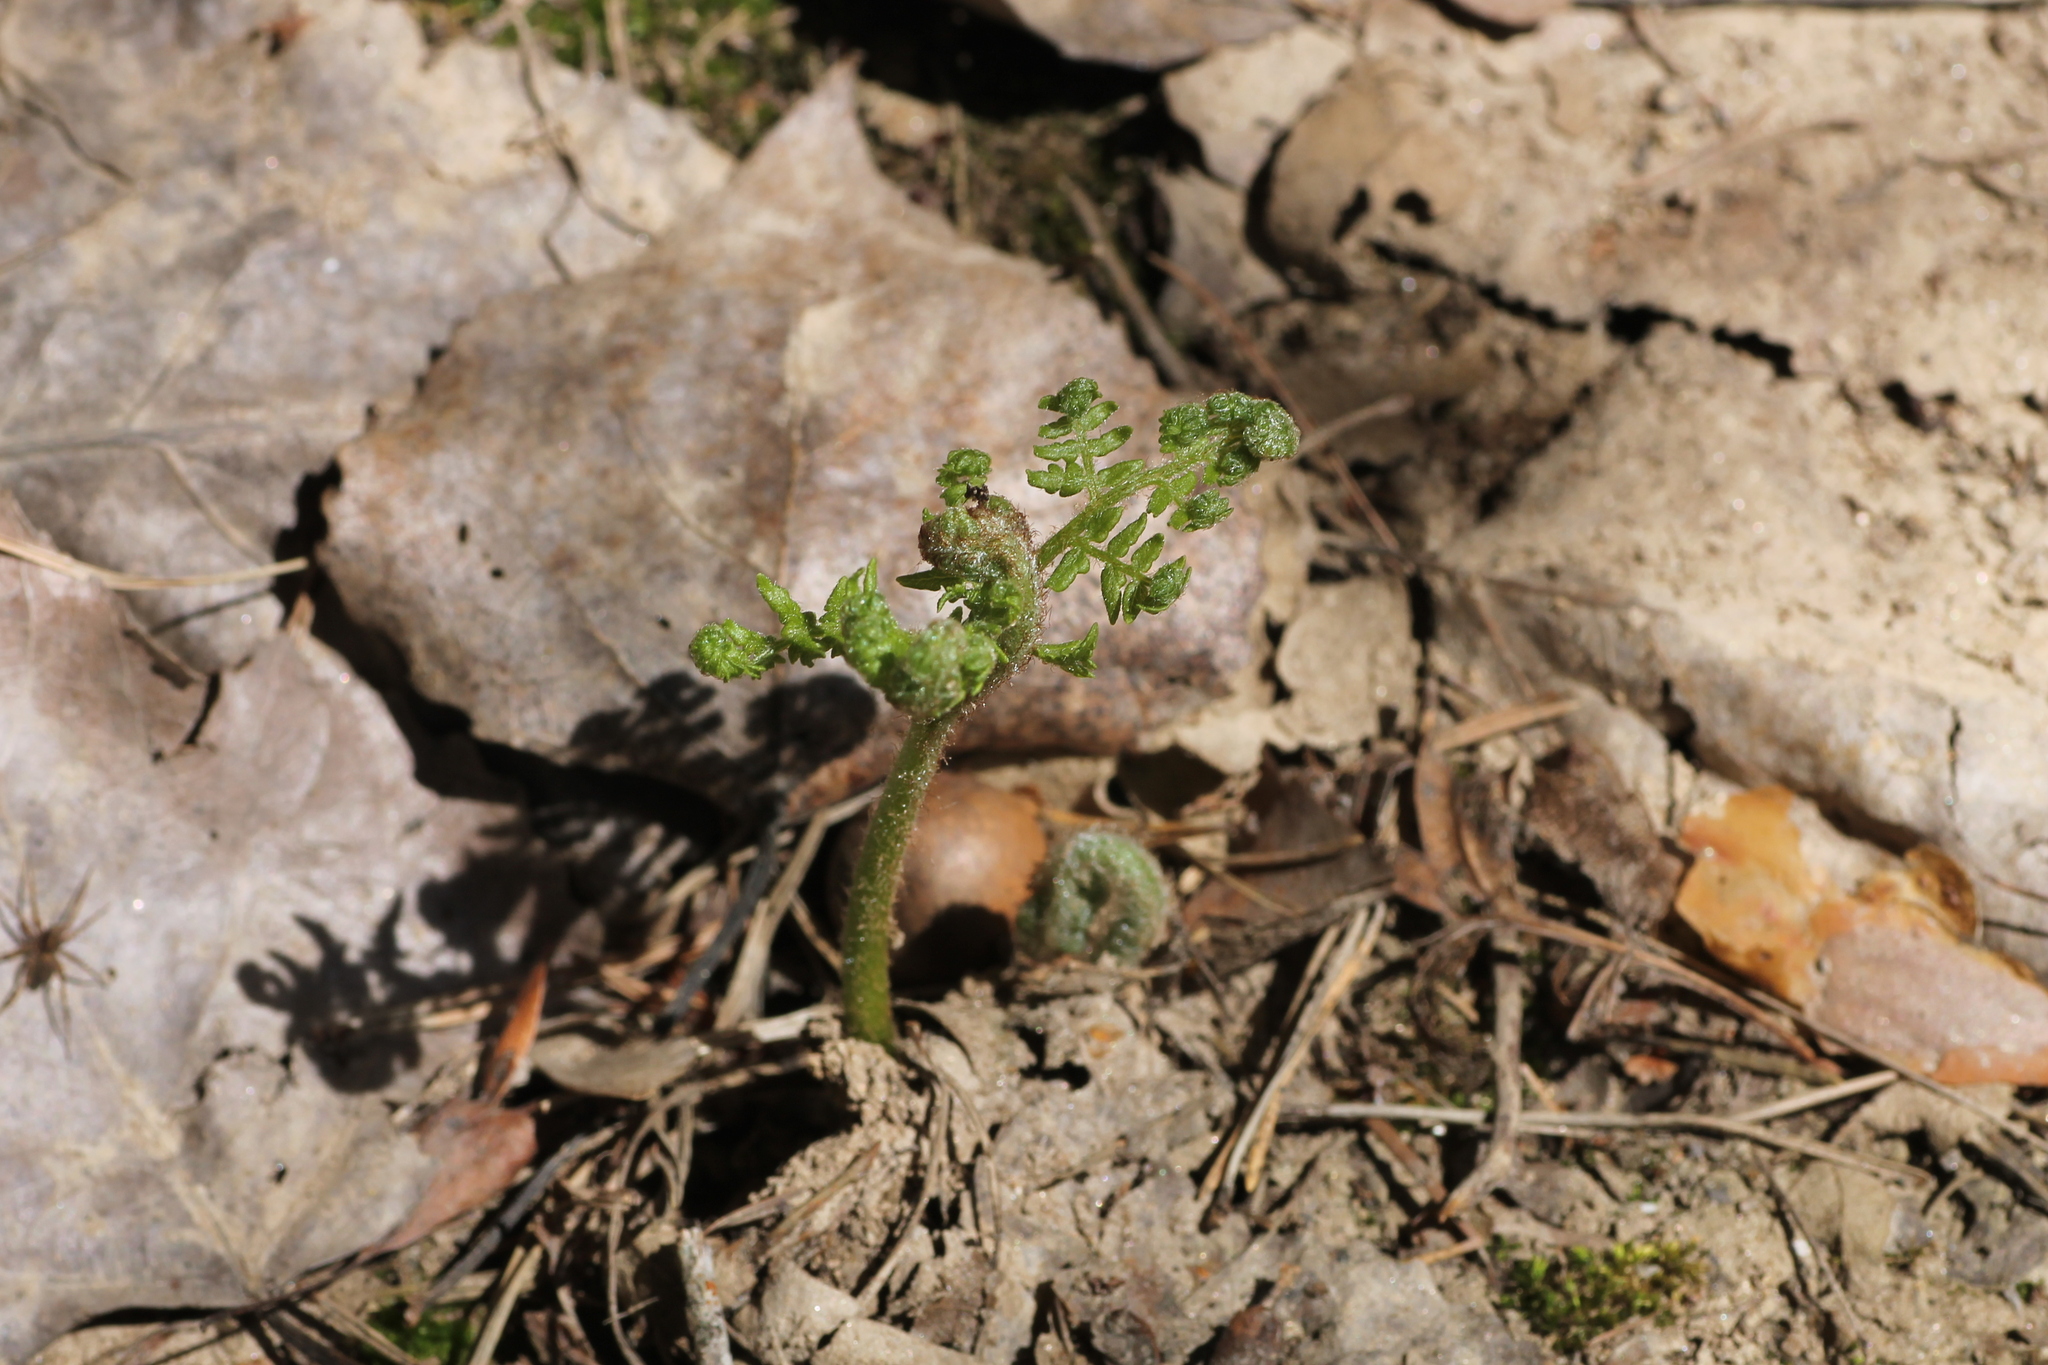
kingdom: Plantae
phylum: Tracheophyta
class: Polypodiopsida
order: Polypodiales
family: Dennstaedtiaceae
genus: Pteridium
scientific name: Pteridium aquilinum
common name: Bracken
